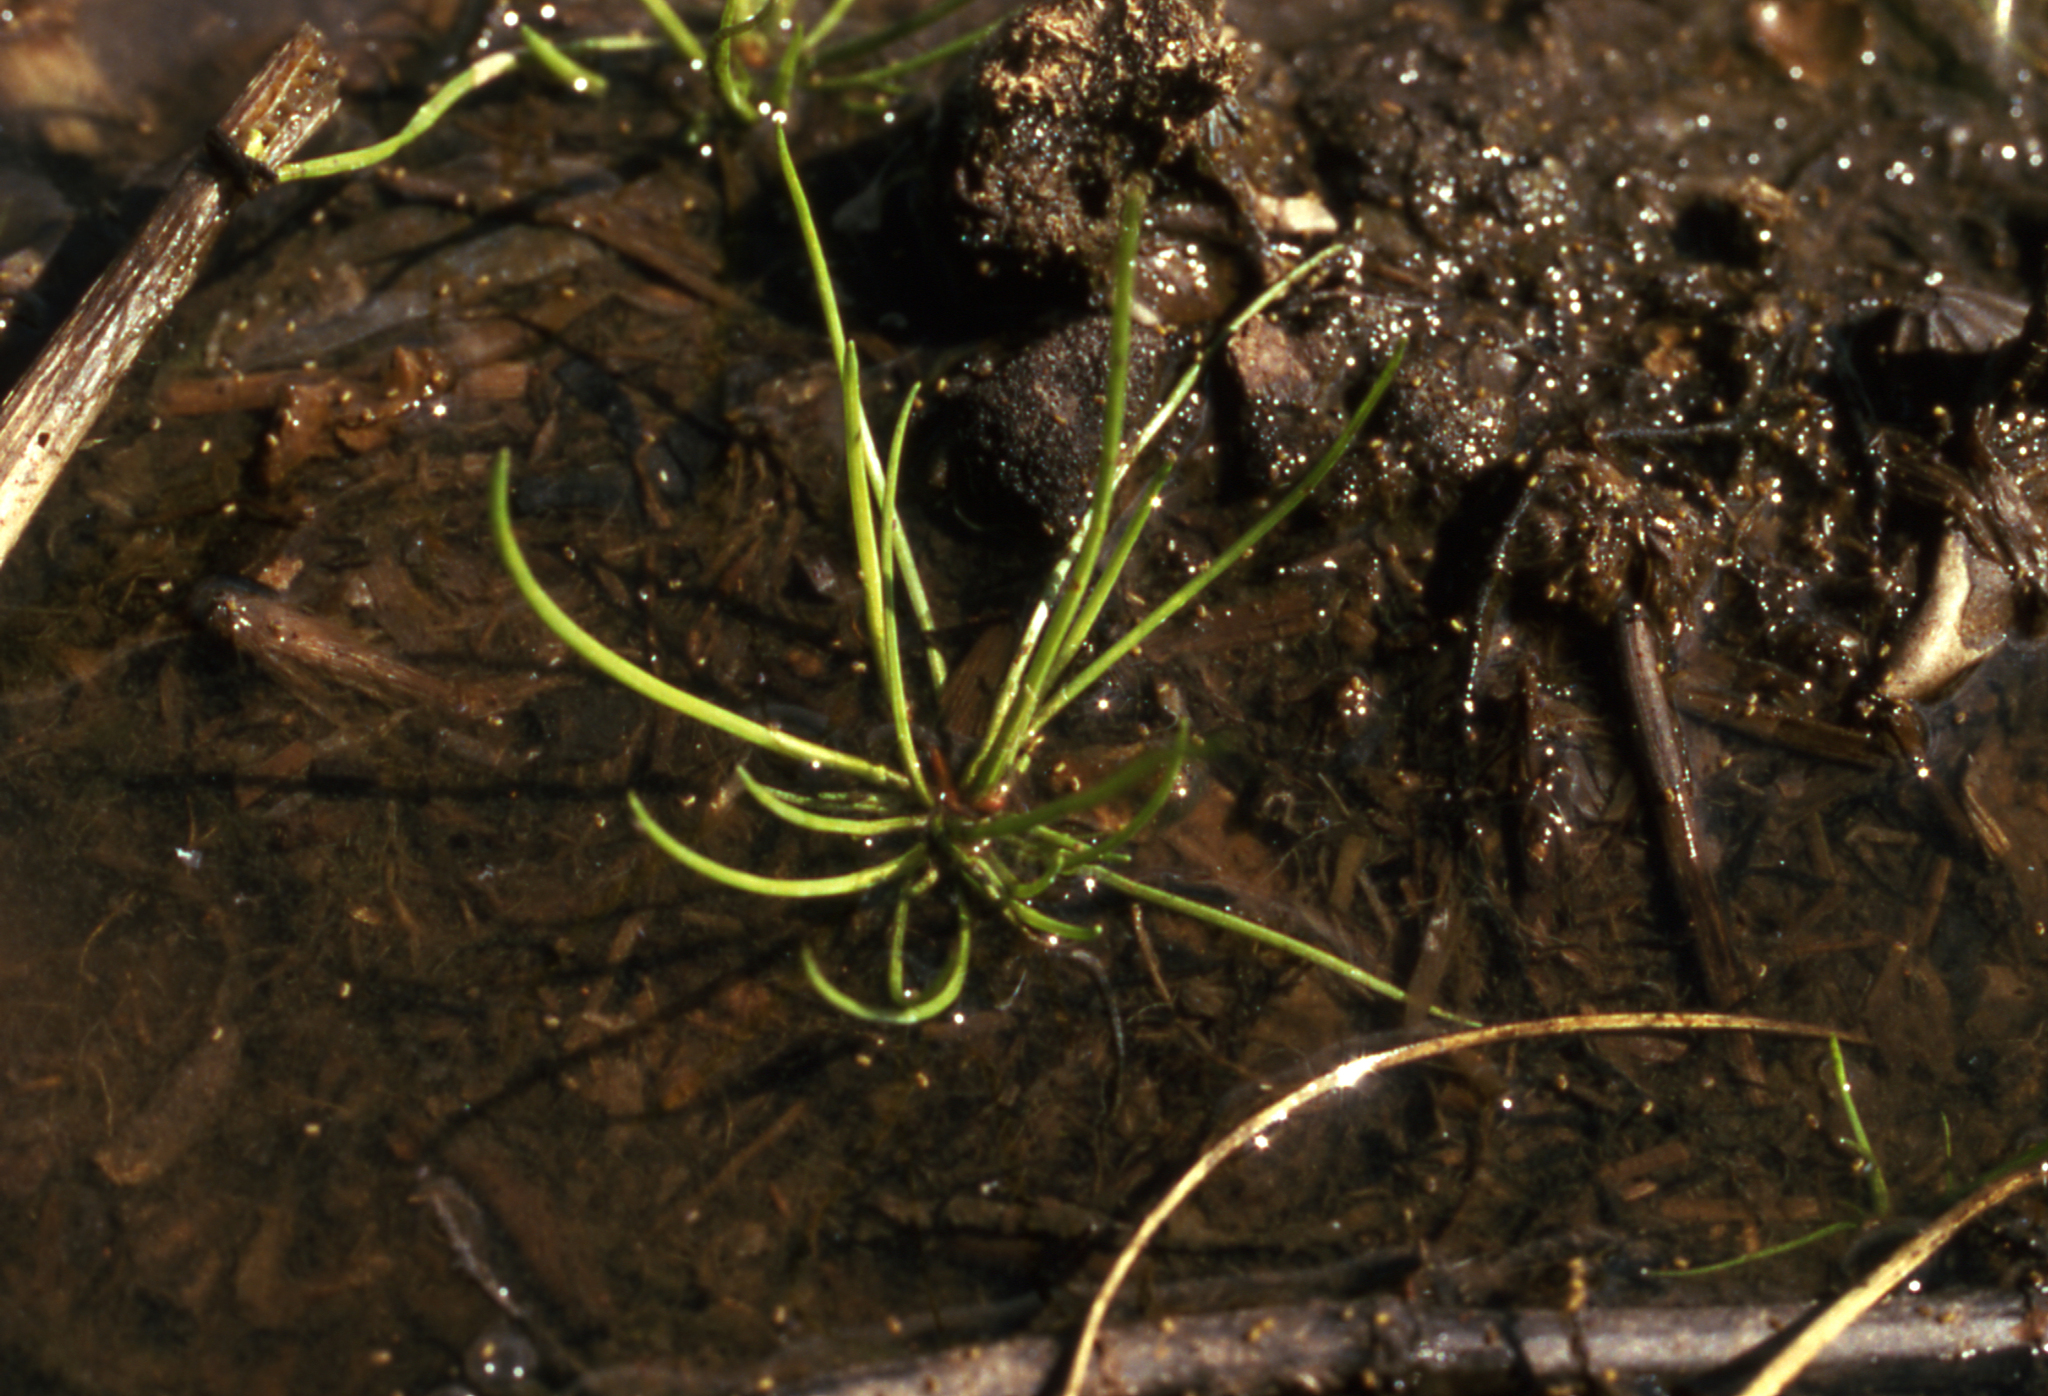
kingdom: Plantae
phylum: Tracheophyta
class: Lycopodiopsida
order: Isoetales
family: Isoetaceae
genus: Isoetes
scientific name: Isoetes lacustris
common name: Common quillwort
